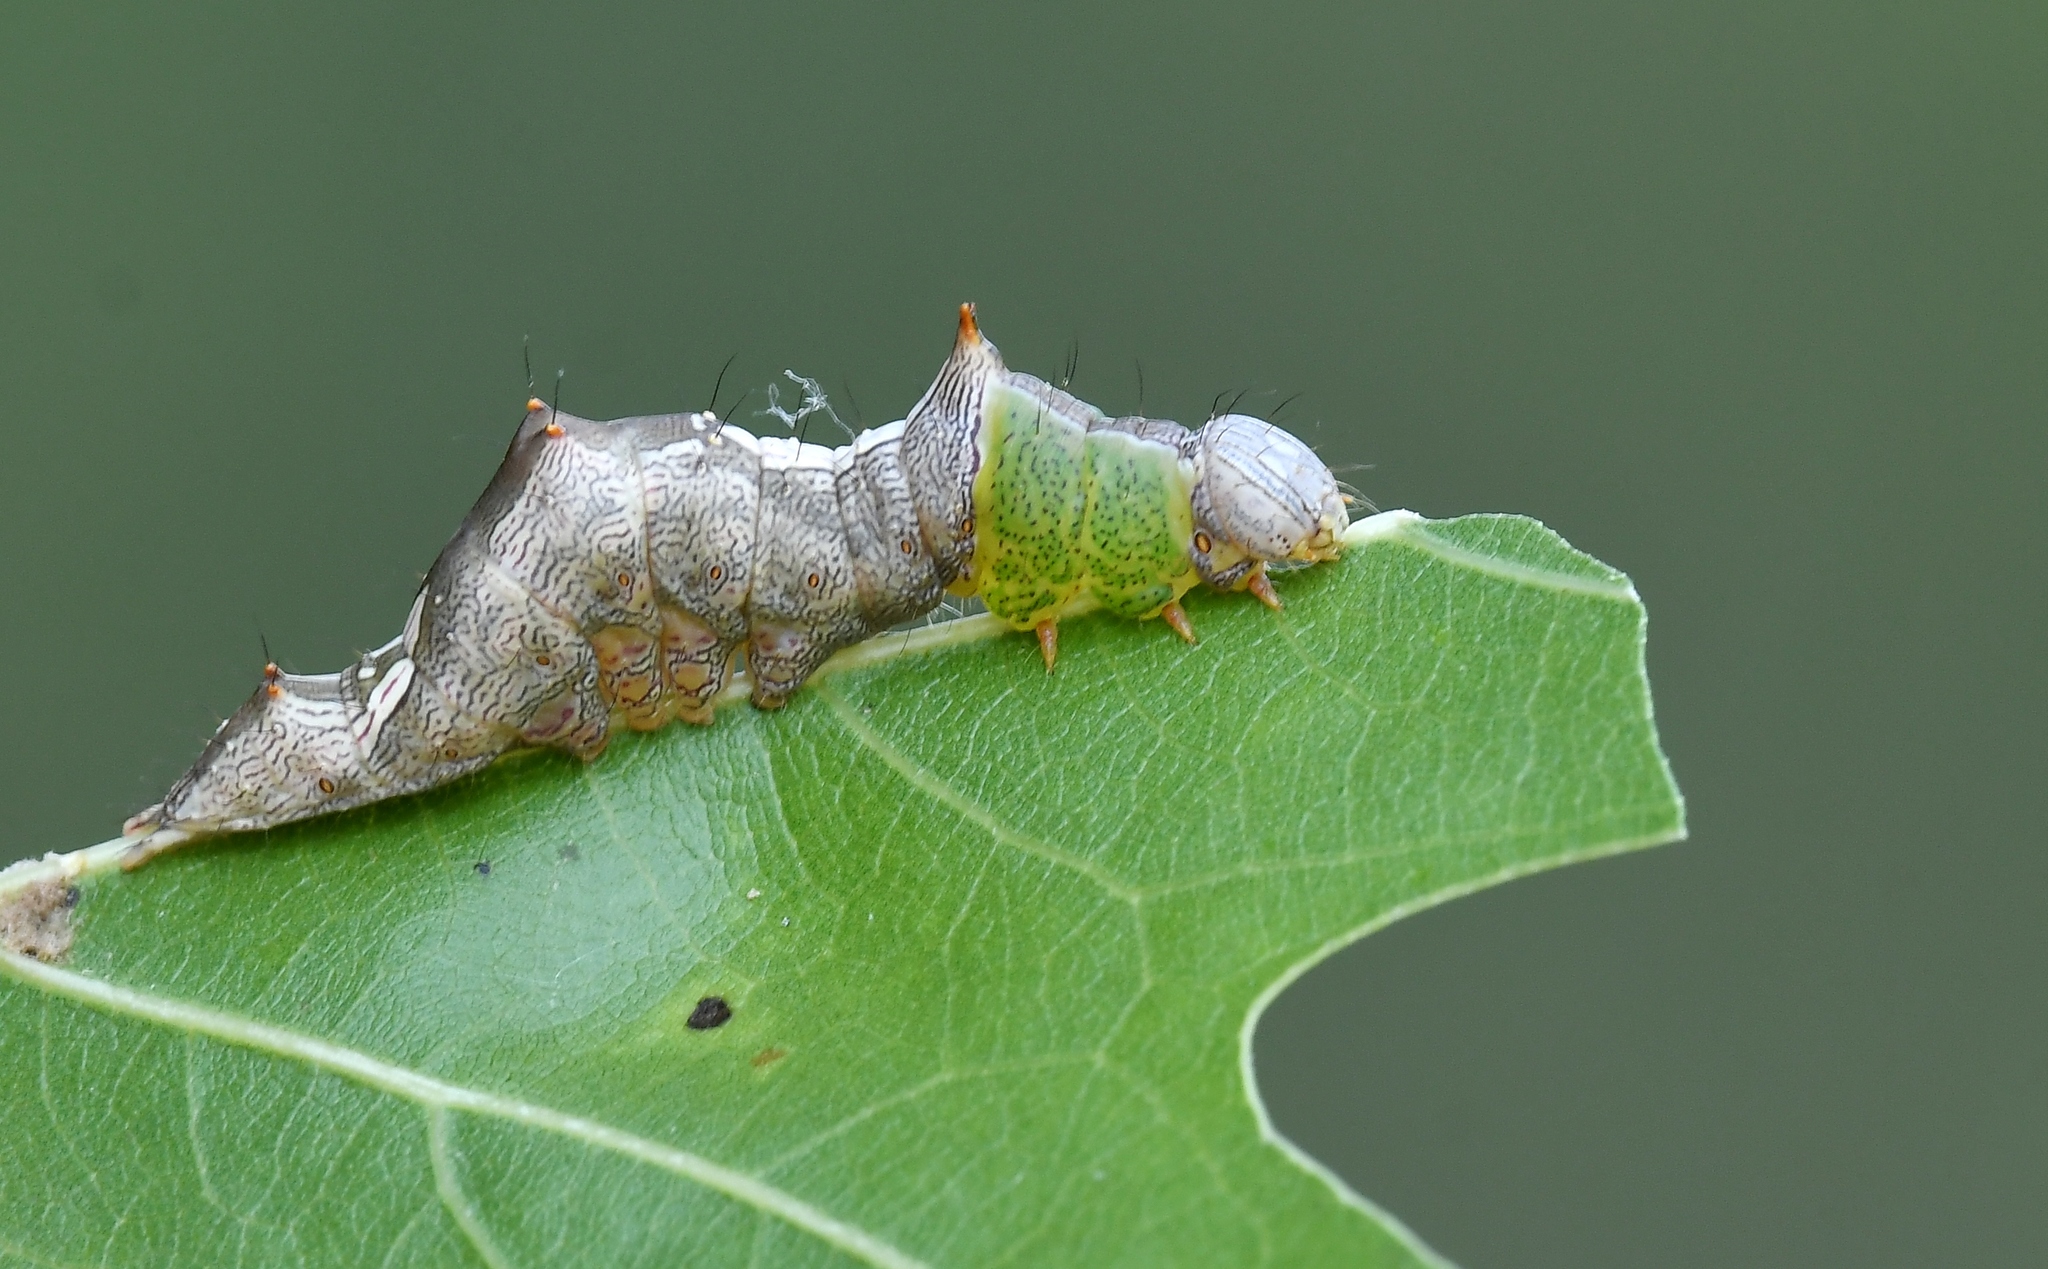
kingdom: Animalia
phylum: Arthropoda
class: Insecta
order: Lepidoptera
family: Notodontidae
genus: Schizura
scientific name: Schizura ipomaeae
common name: Morning-glory prominent
